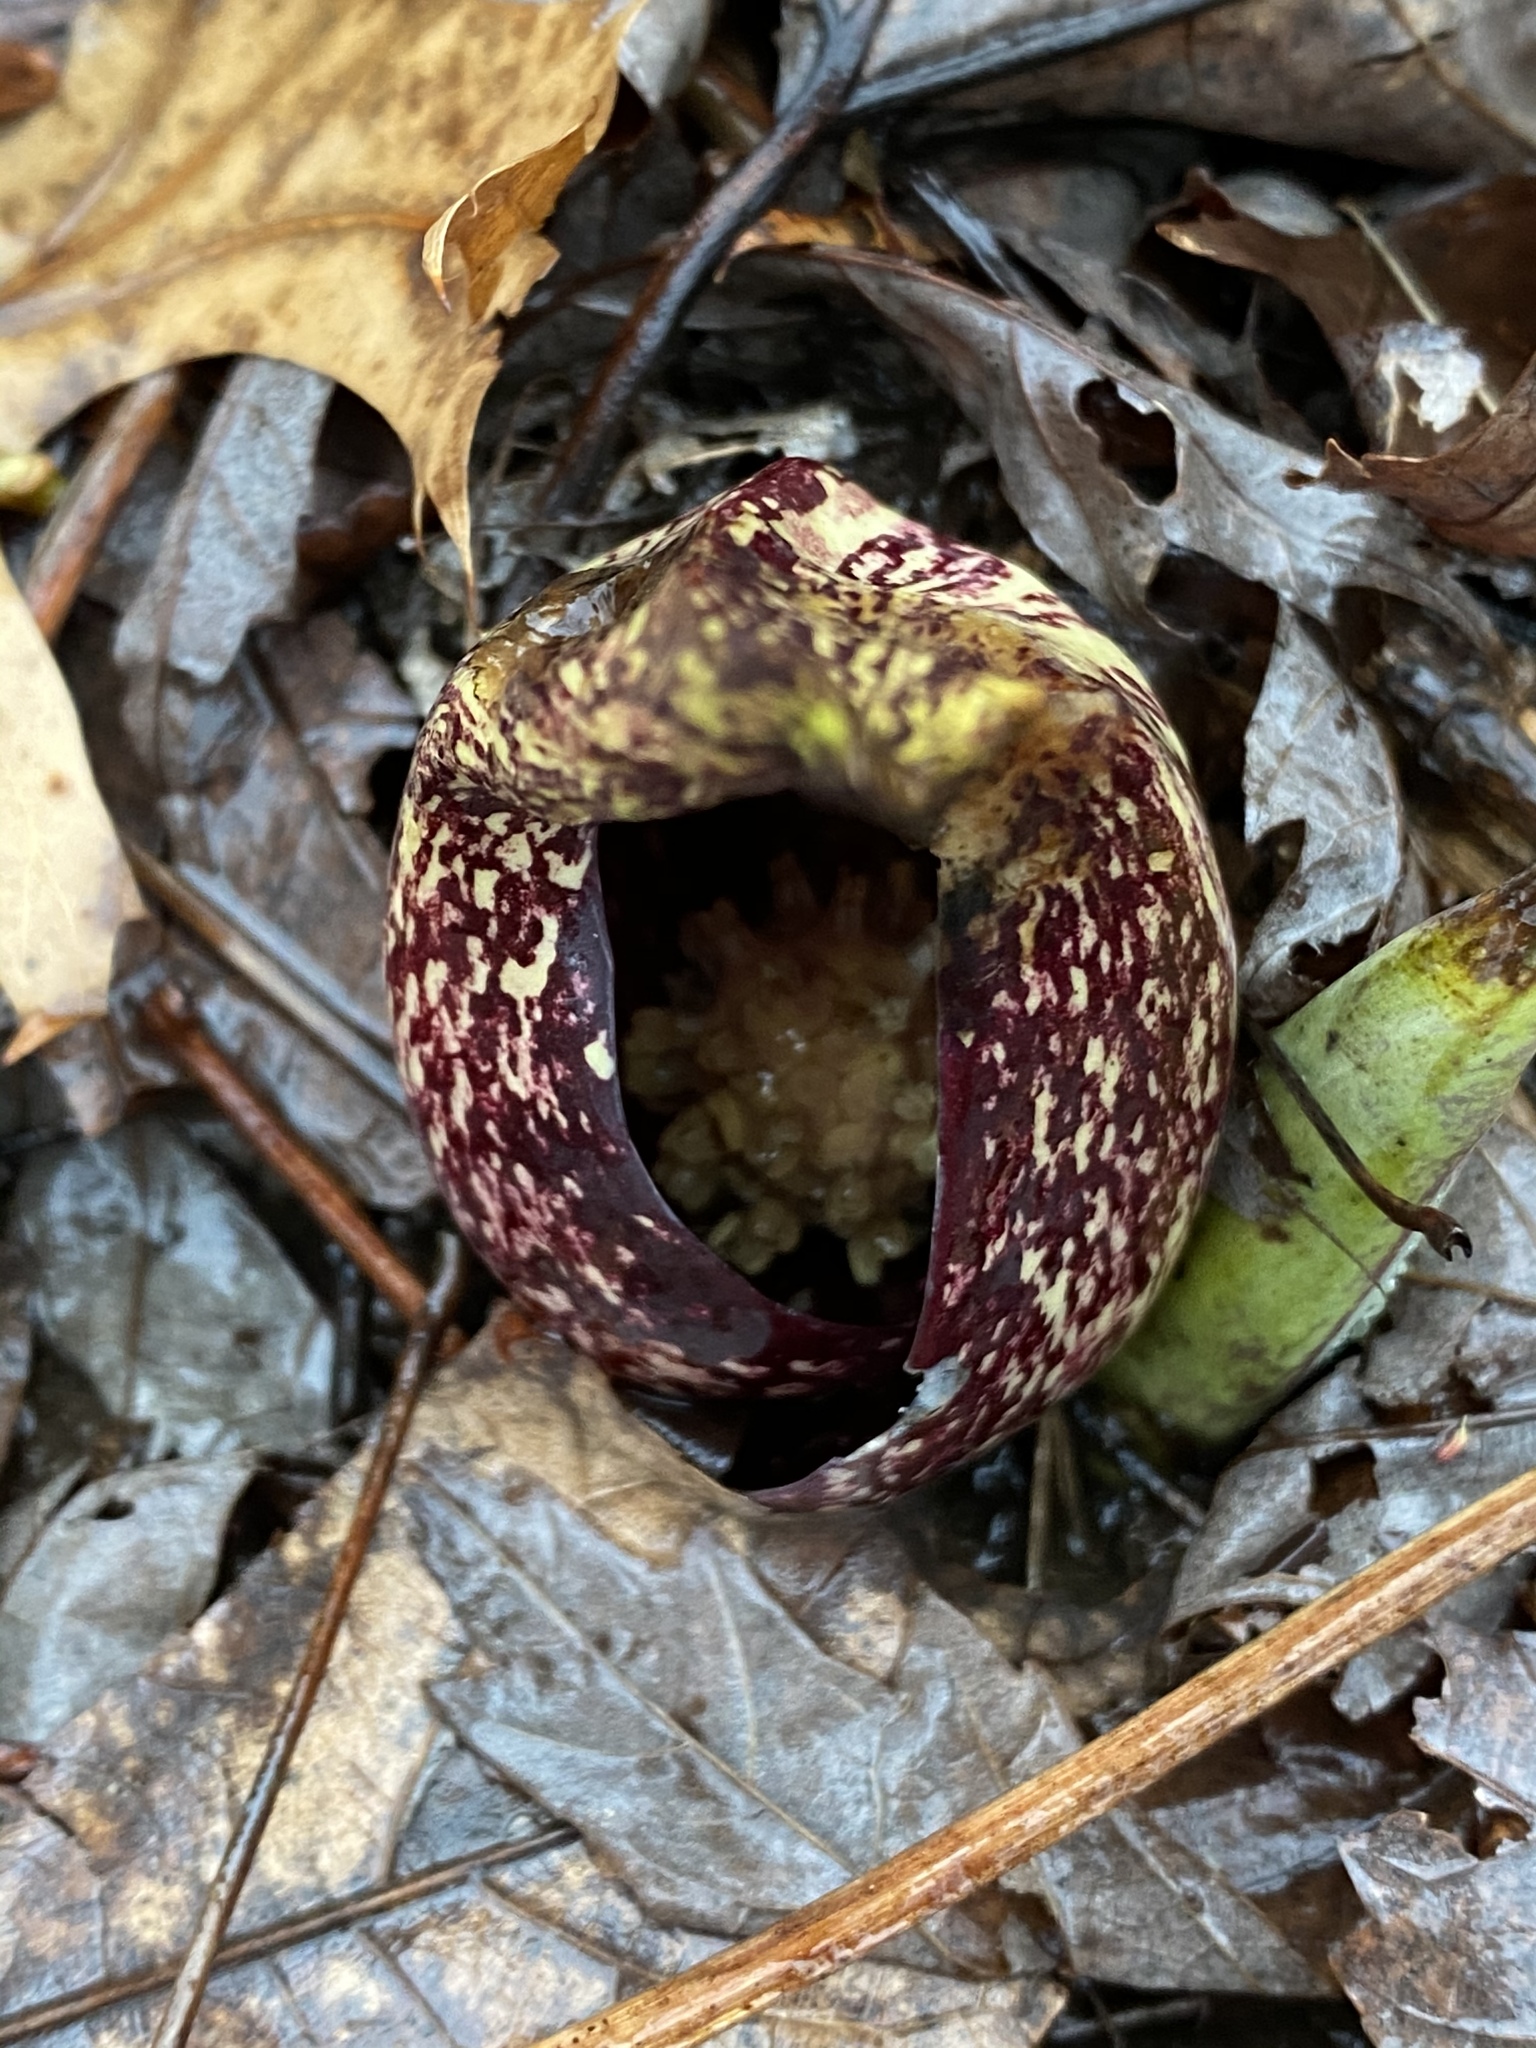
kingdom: Plantae
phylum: Tracheophyta
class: Liliopsida
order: Alismatales
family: Araceae
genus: Symplocarpus
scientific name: Symplocarpus foetidus
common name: Eastern skunk cabbage
